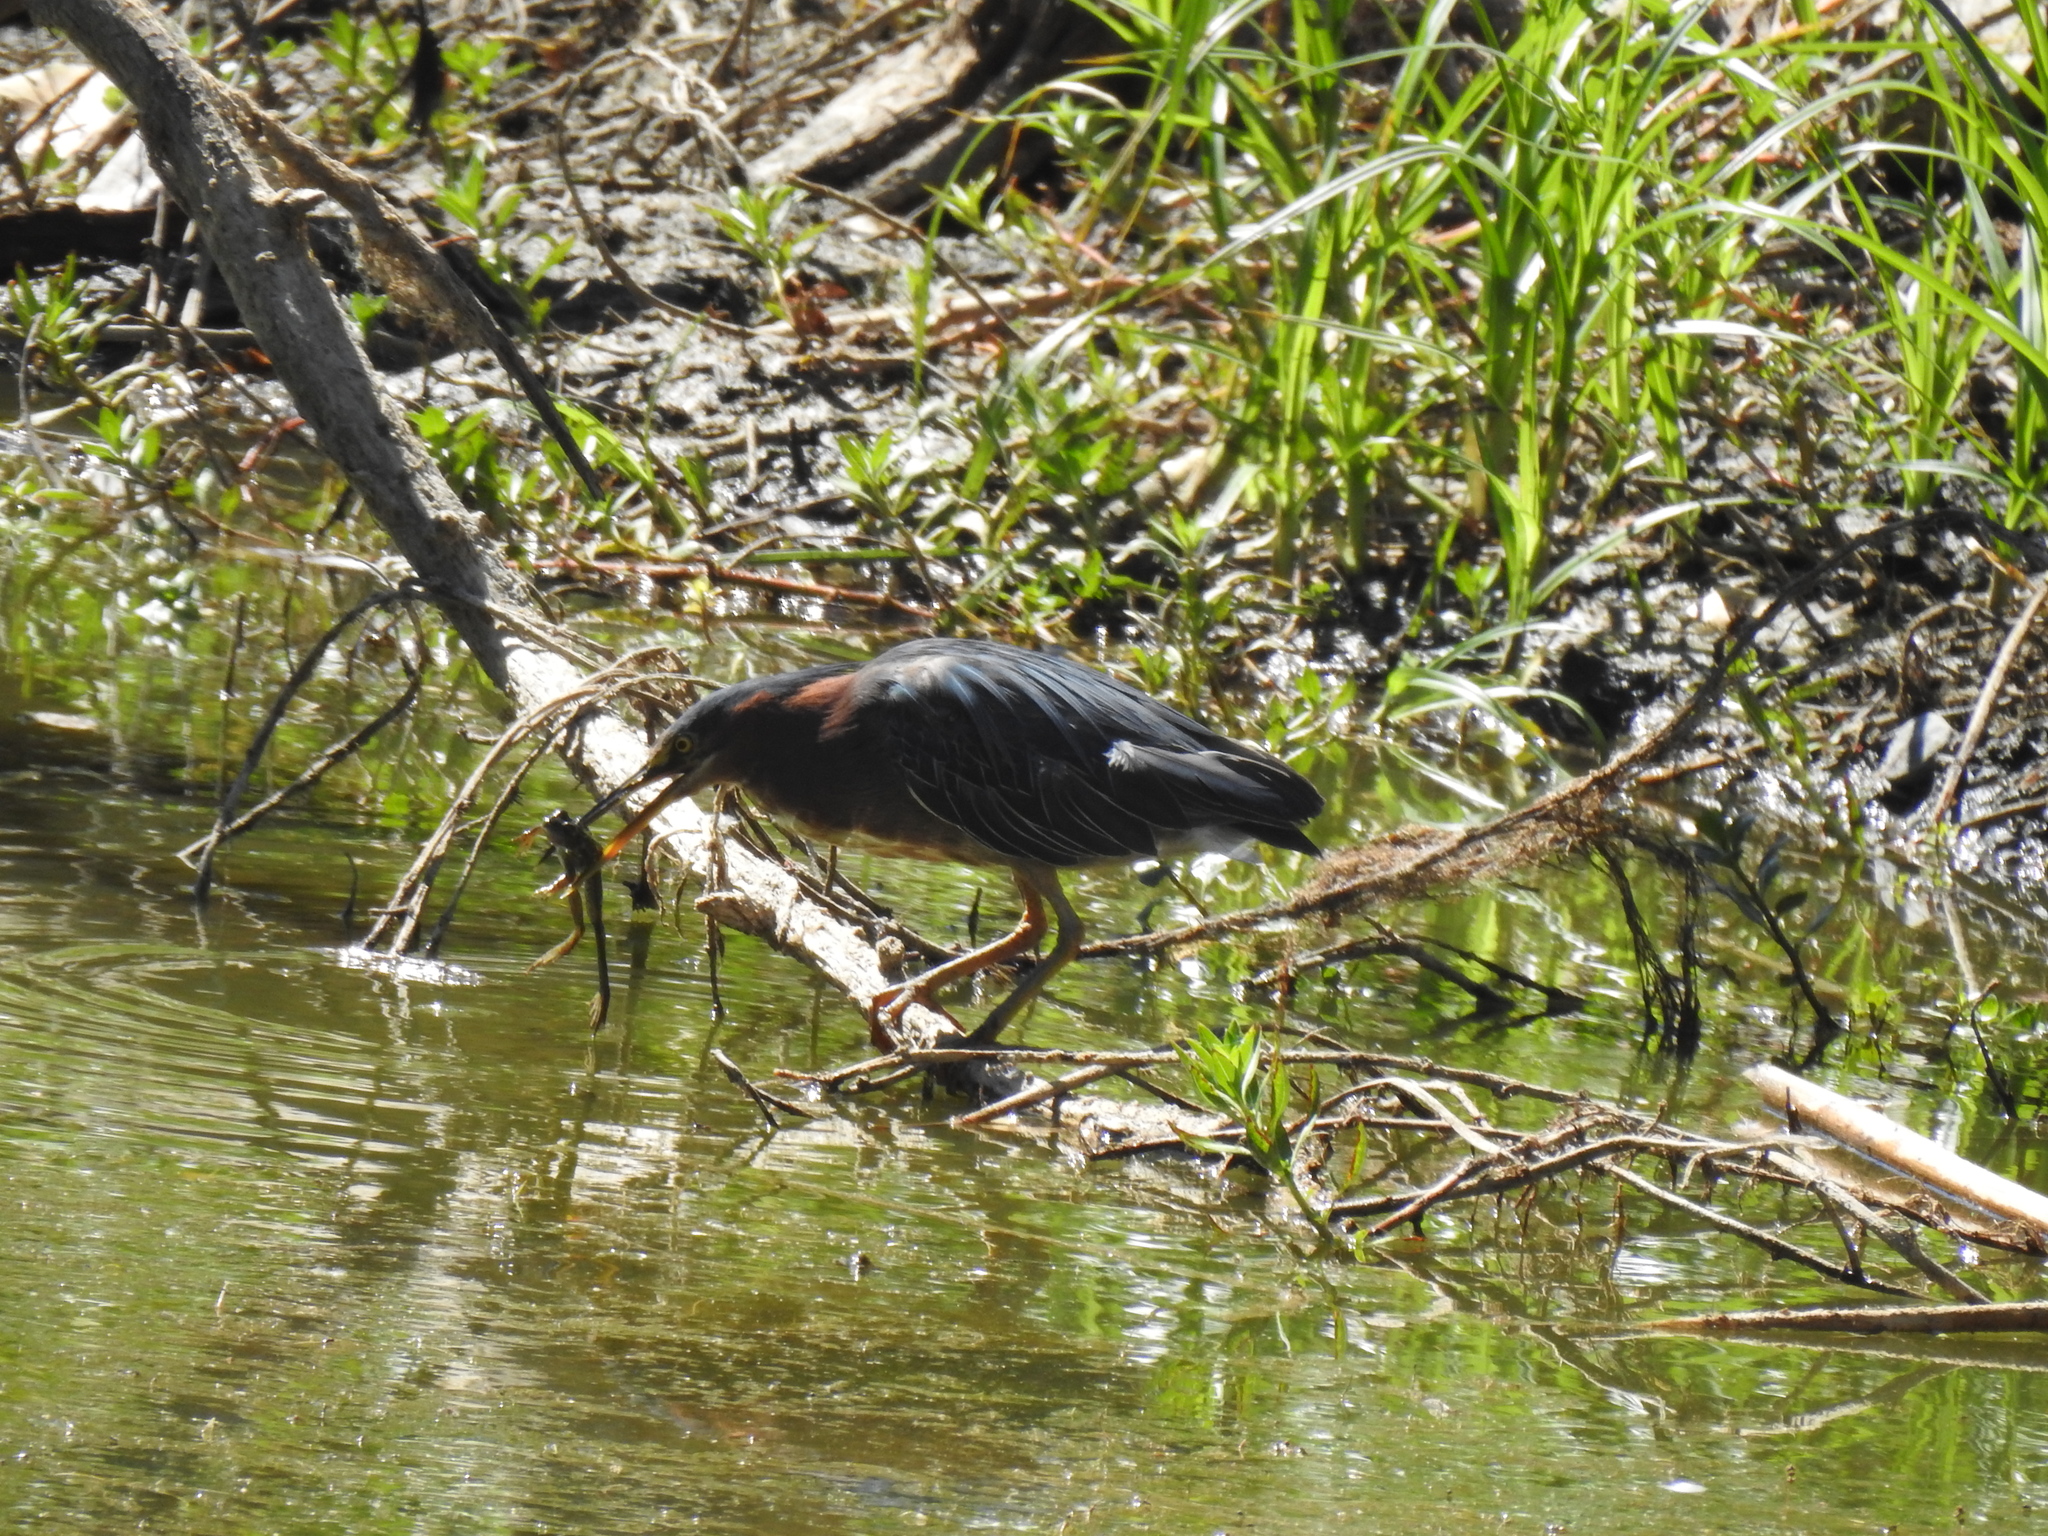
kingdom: Animalia
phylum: Chordata
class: Aves
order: Pelecaniformes
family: Ardeidae
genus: Butorides
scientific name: Butorides virescens
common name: Green heron
